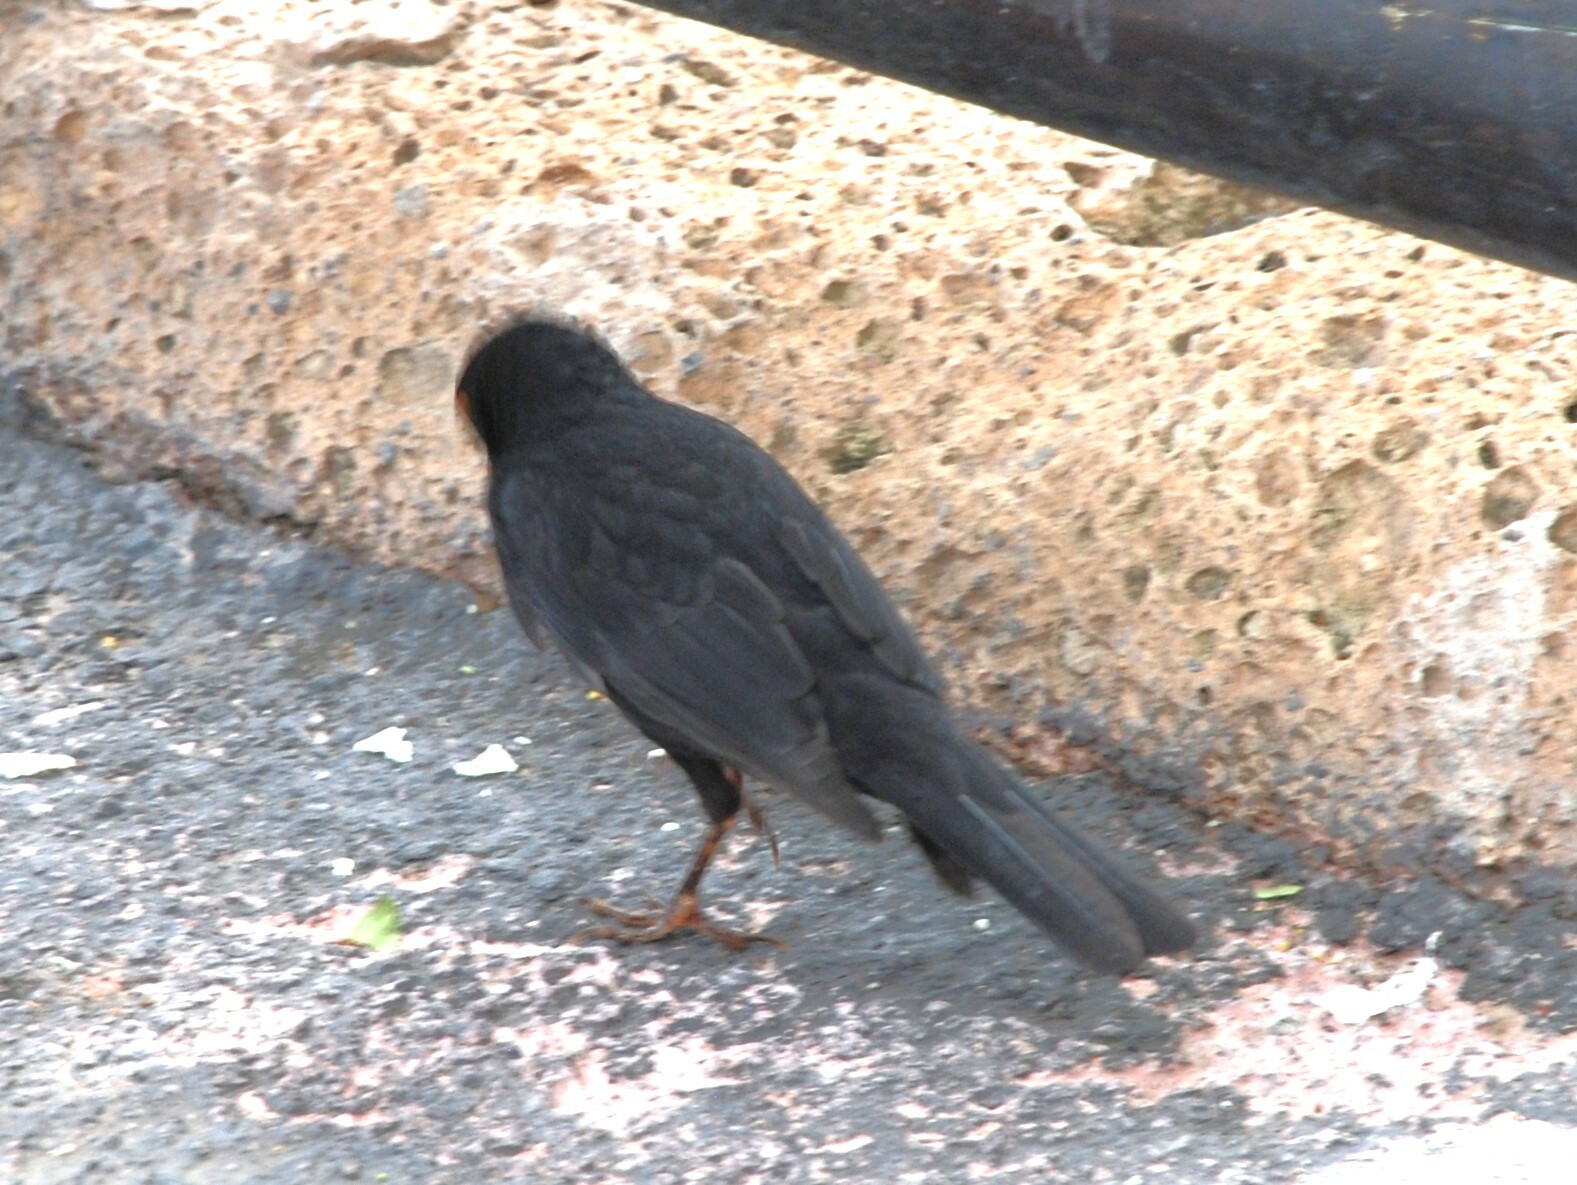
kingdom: Animalia
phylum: Chordata
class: Aves
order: Passeriformes
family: Turdidae
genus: Turdus
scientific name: Turdus merula
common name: Common blackbird
